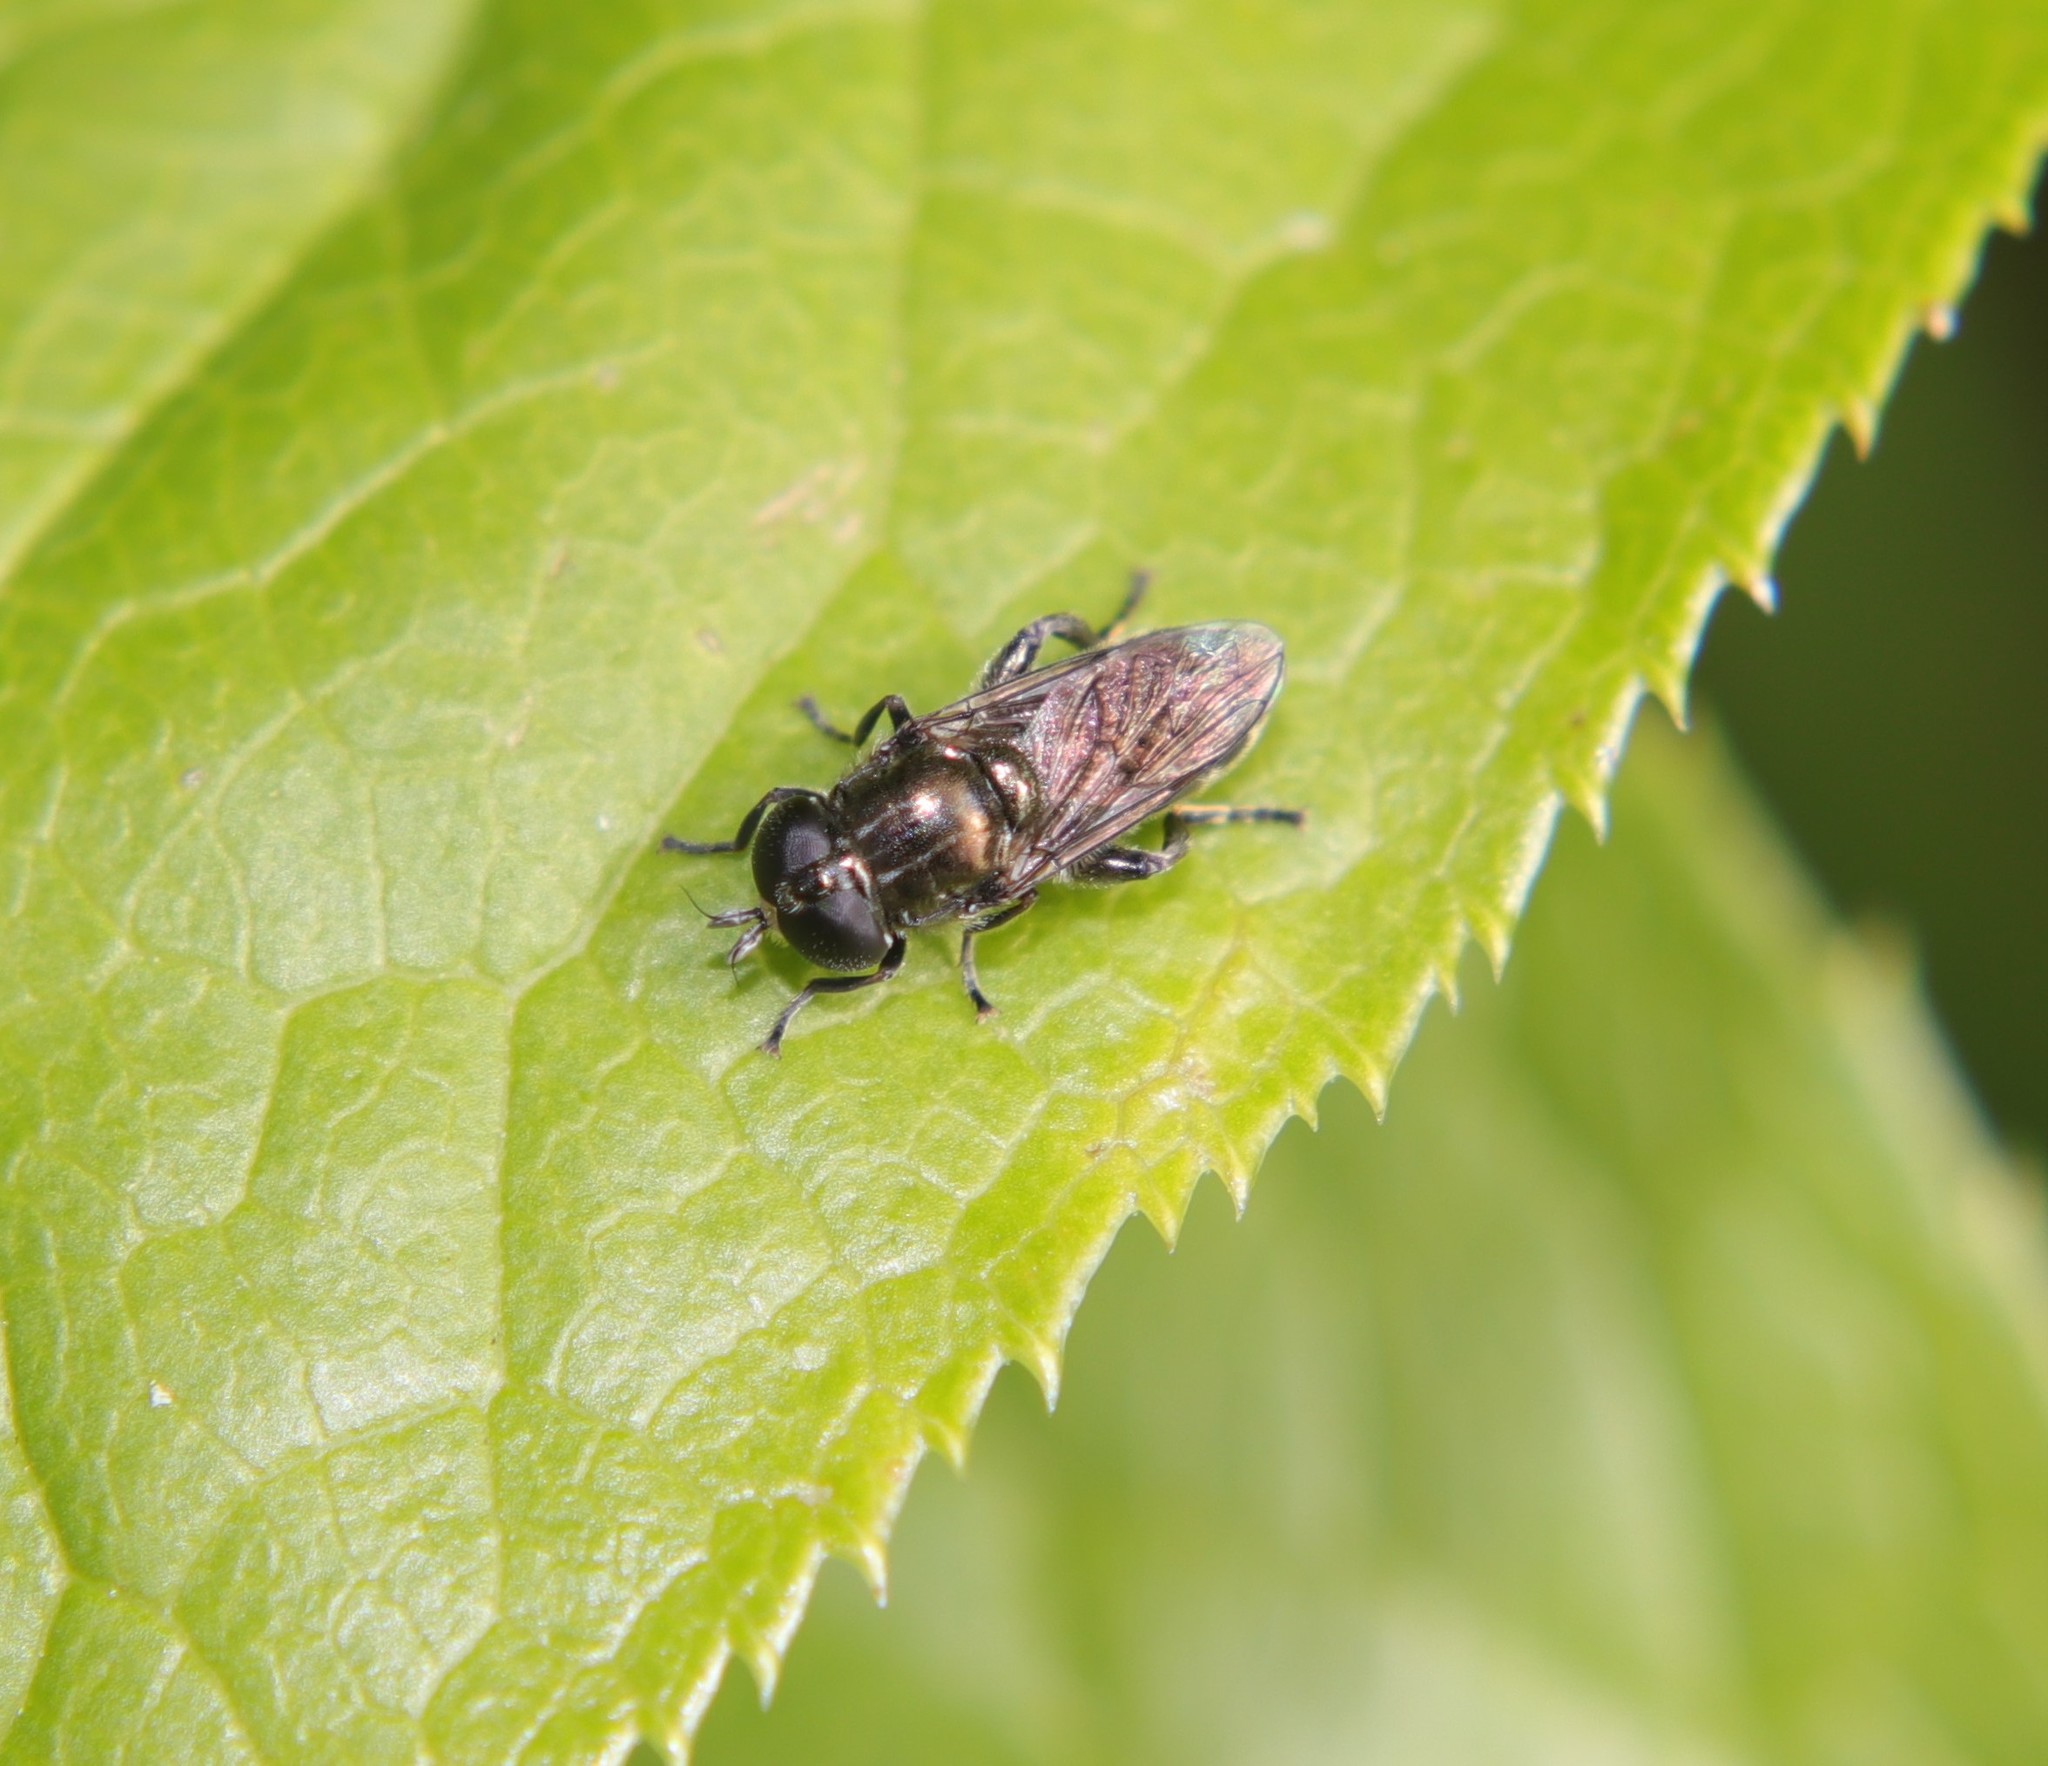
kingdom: Animalia
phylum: Arthropoda
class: Insecta
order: Diptera
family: Syrphidae
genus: Eumerus
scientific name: Eumerus
